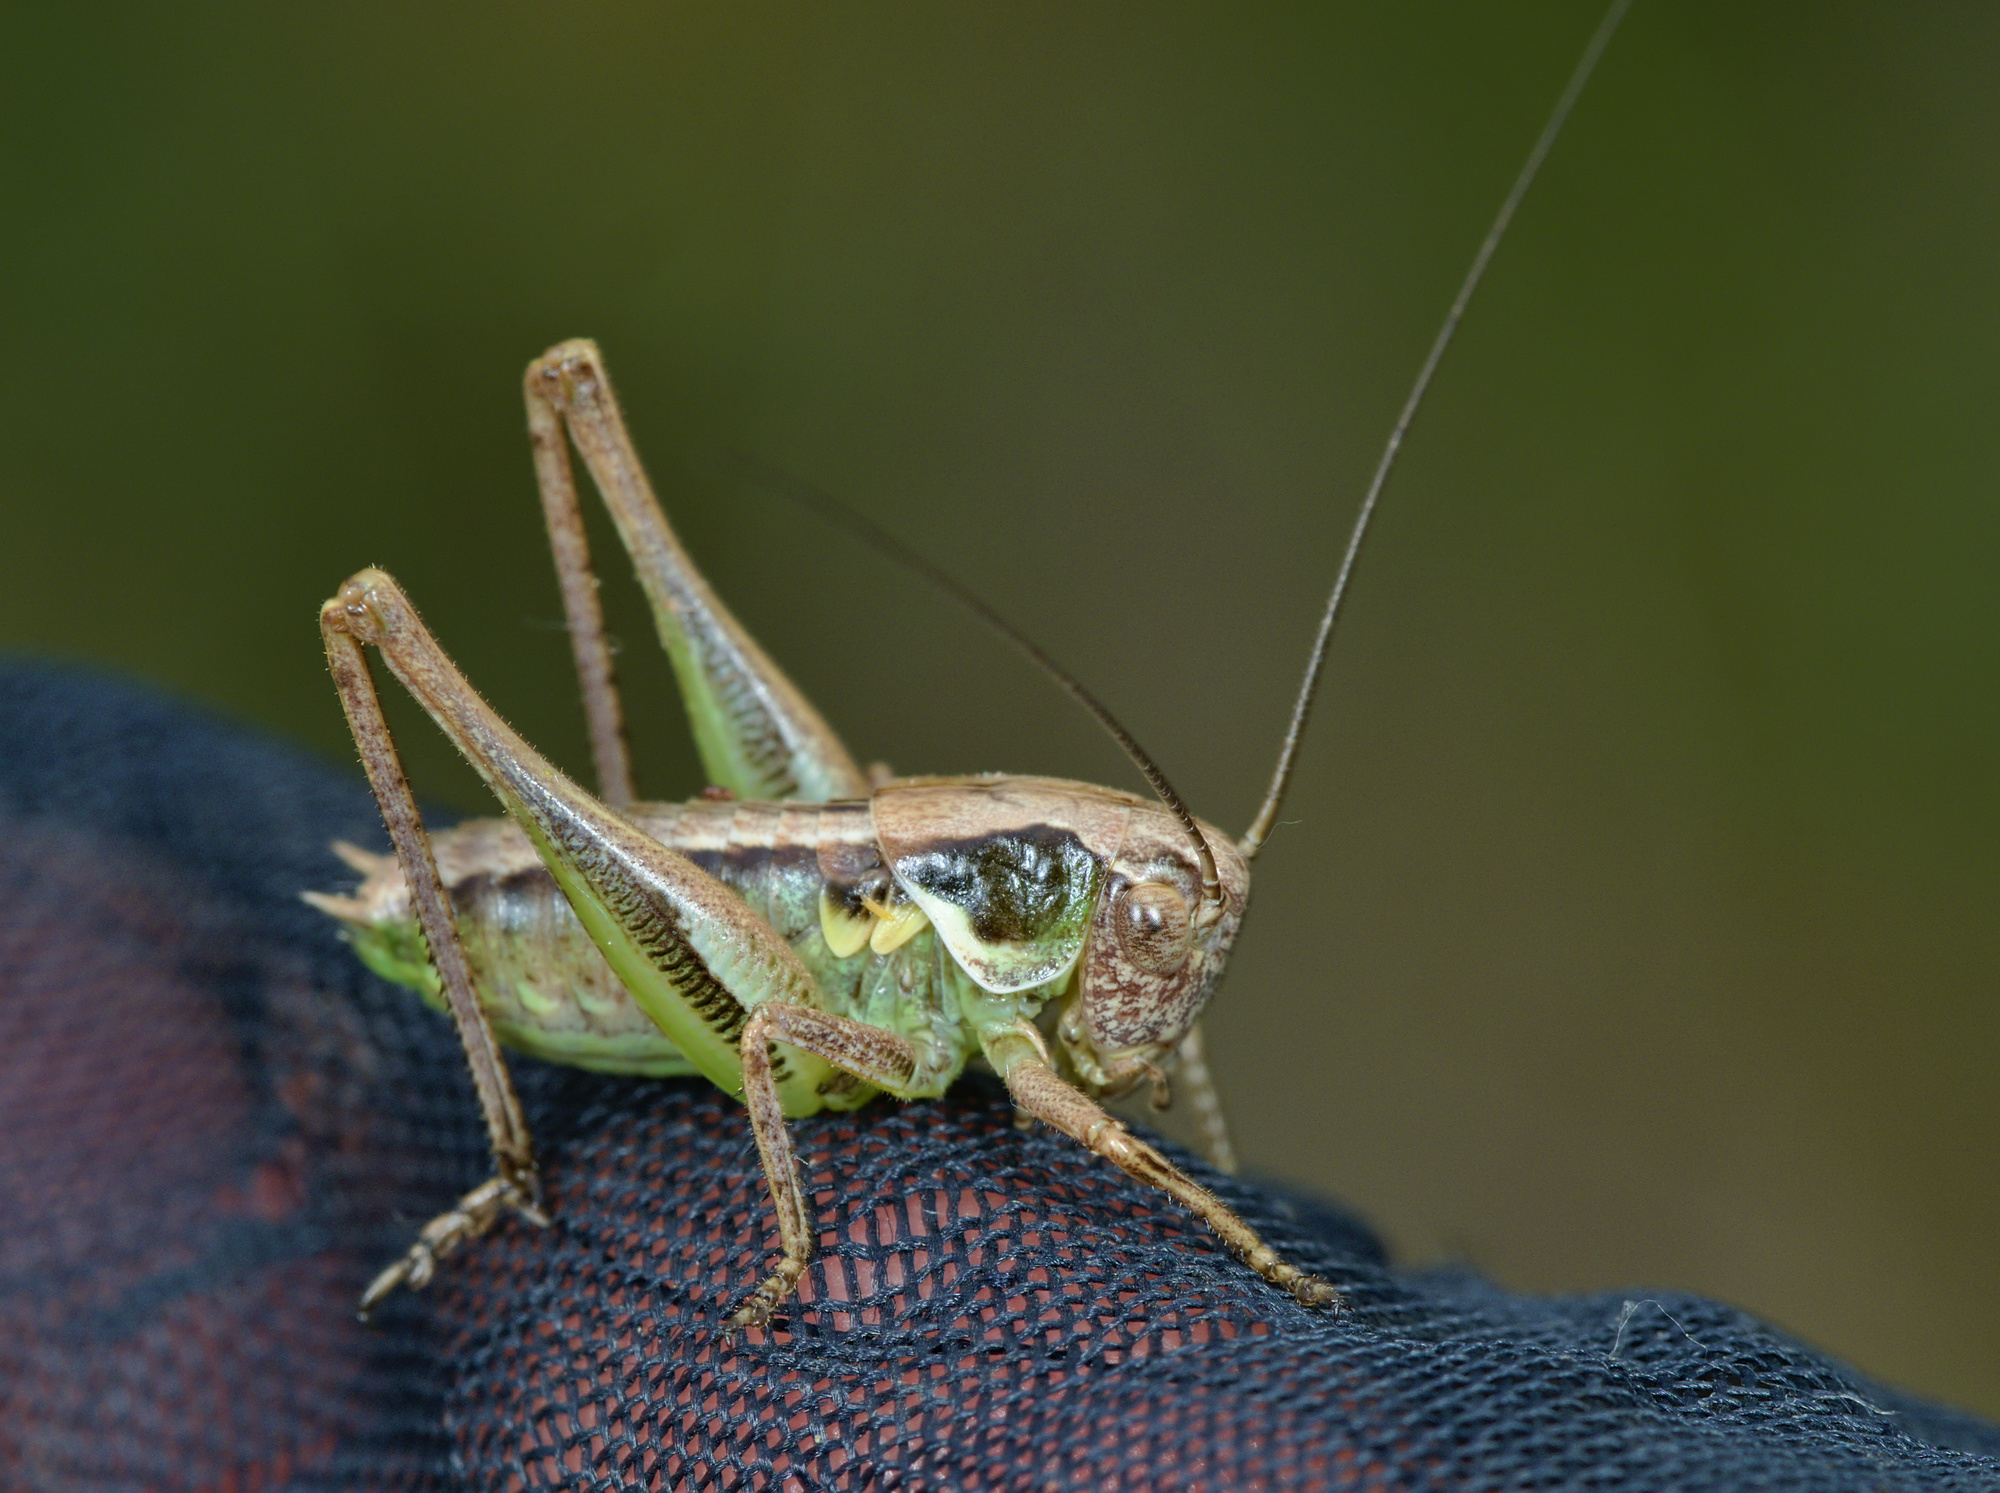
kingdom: Animalia
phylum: Arthropoda
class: Insecta
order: Orthoptera
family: Tettigoniidae
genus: Platycleis
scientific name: Platycleis albopunctata
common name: Grey bush-cricket
